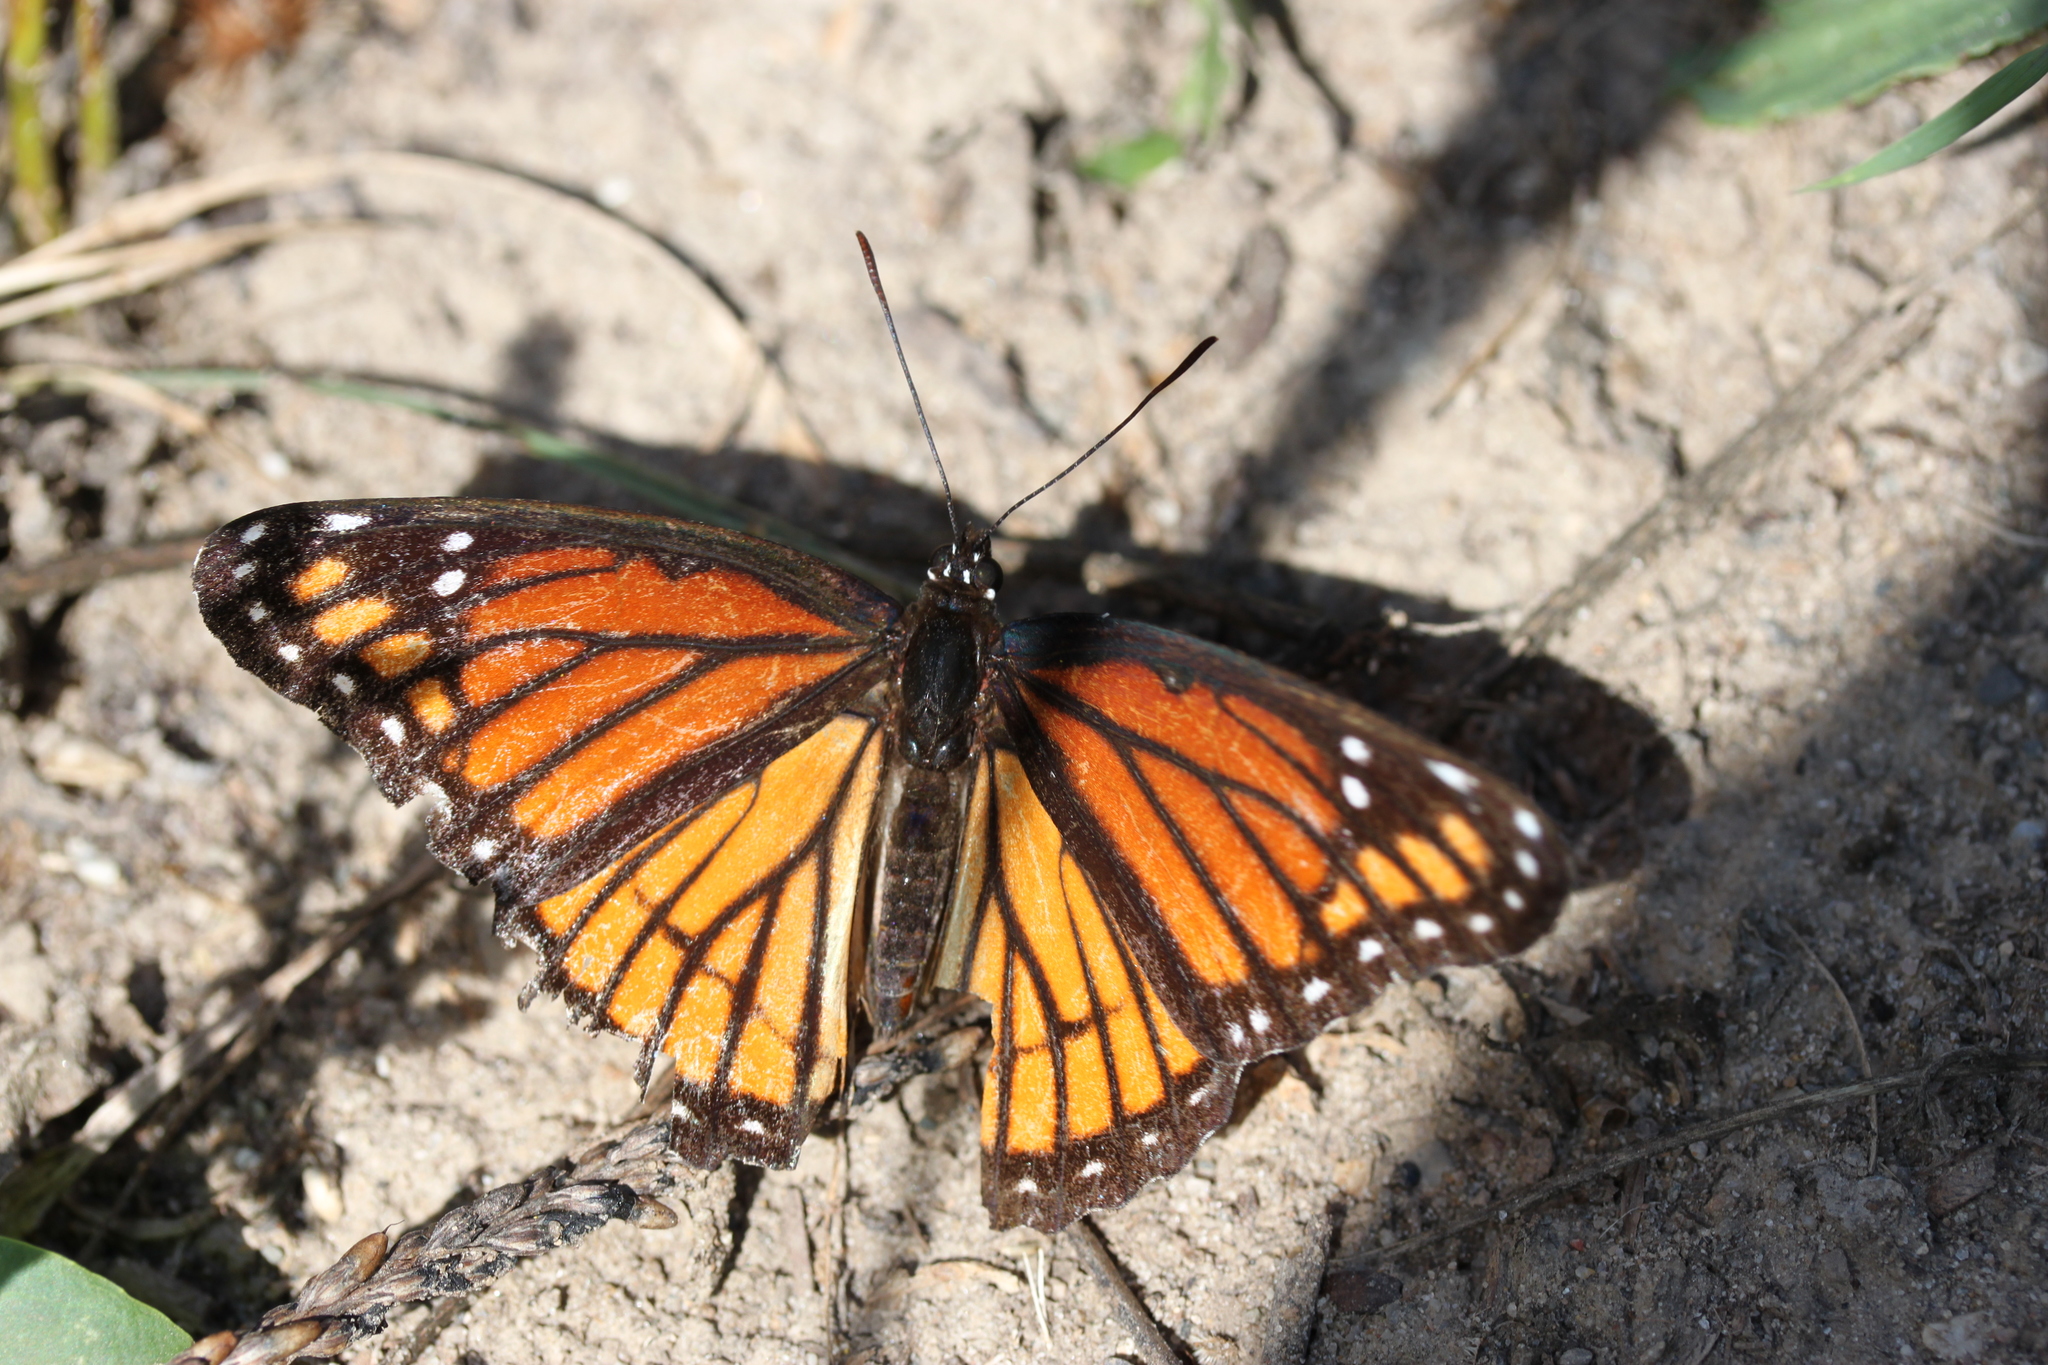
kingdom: Animalia
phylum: Arthropoda
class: Insecta
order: Lepidoptera
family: Nymphalidae
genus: Limenitis
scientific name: Limenitis archippus
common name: Viceroy
